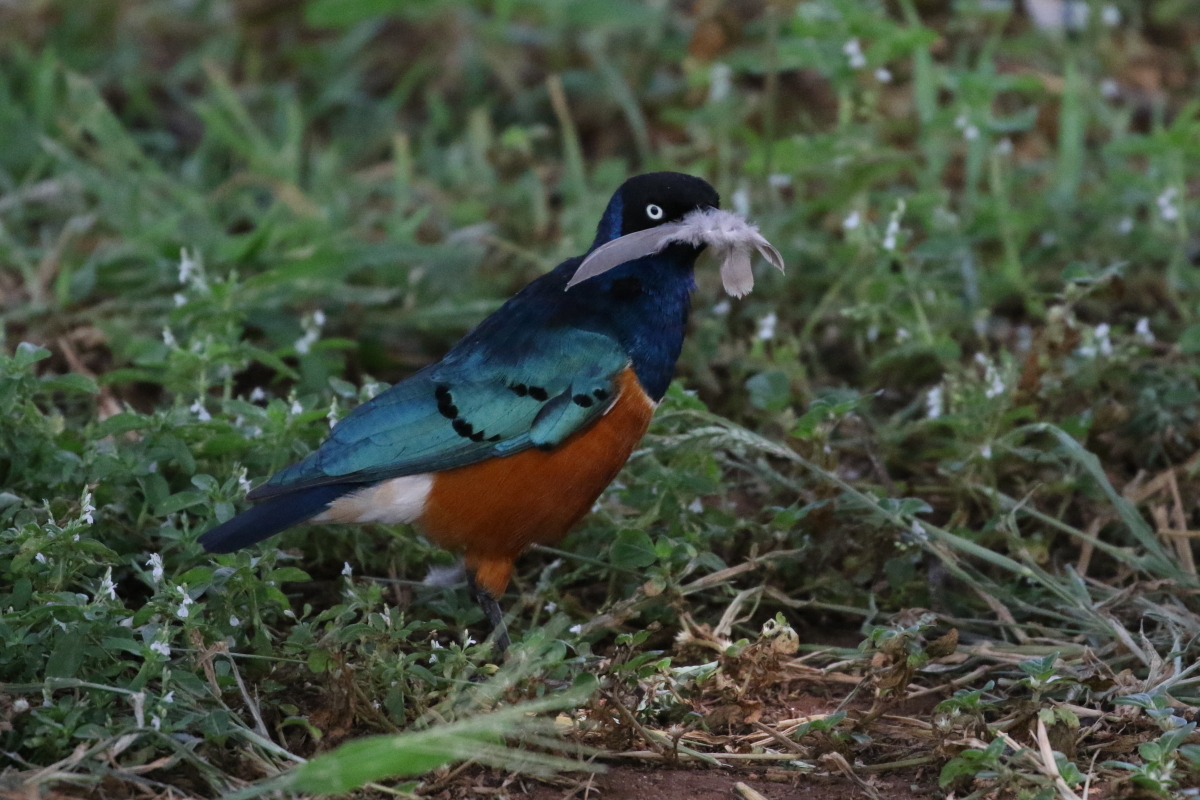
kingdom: Animalia
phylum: Chordata
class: Aves
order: Passeriformes
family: Sturnidae
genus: Lamprotornis
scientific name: Lamprotornis superbus
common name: Superb starling
